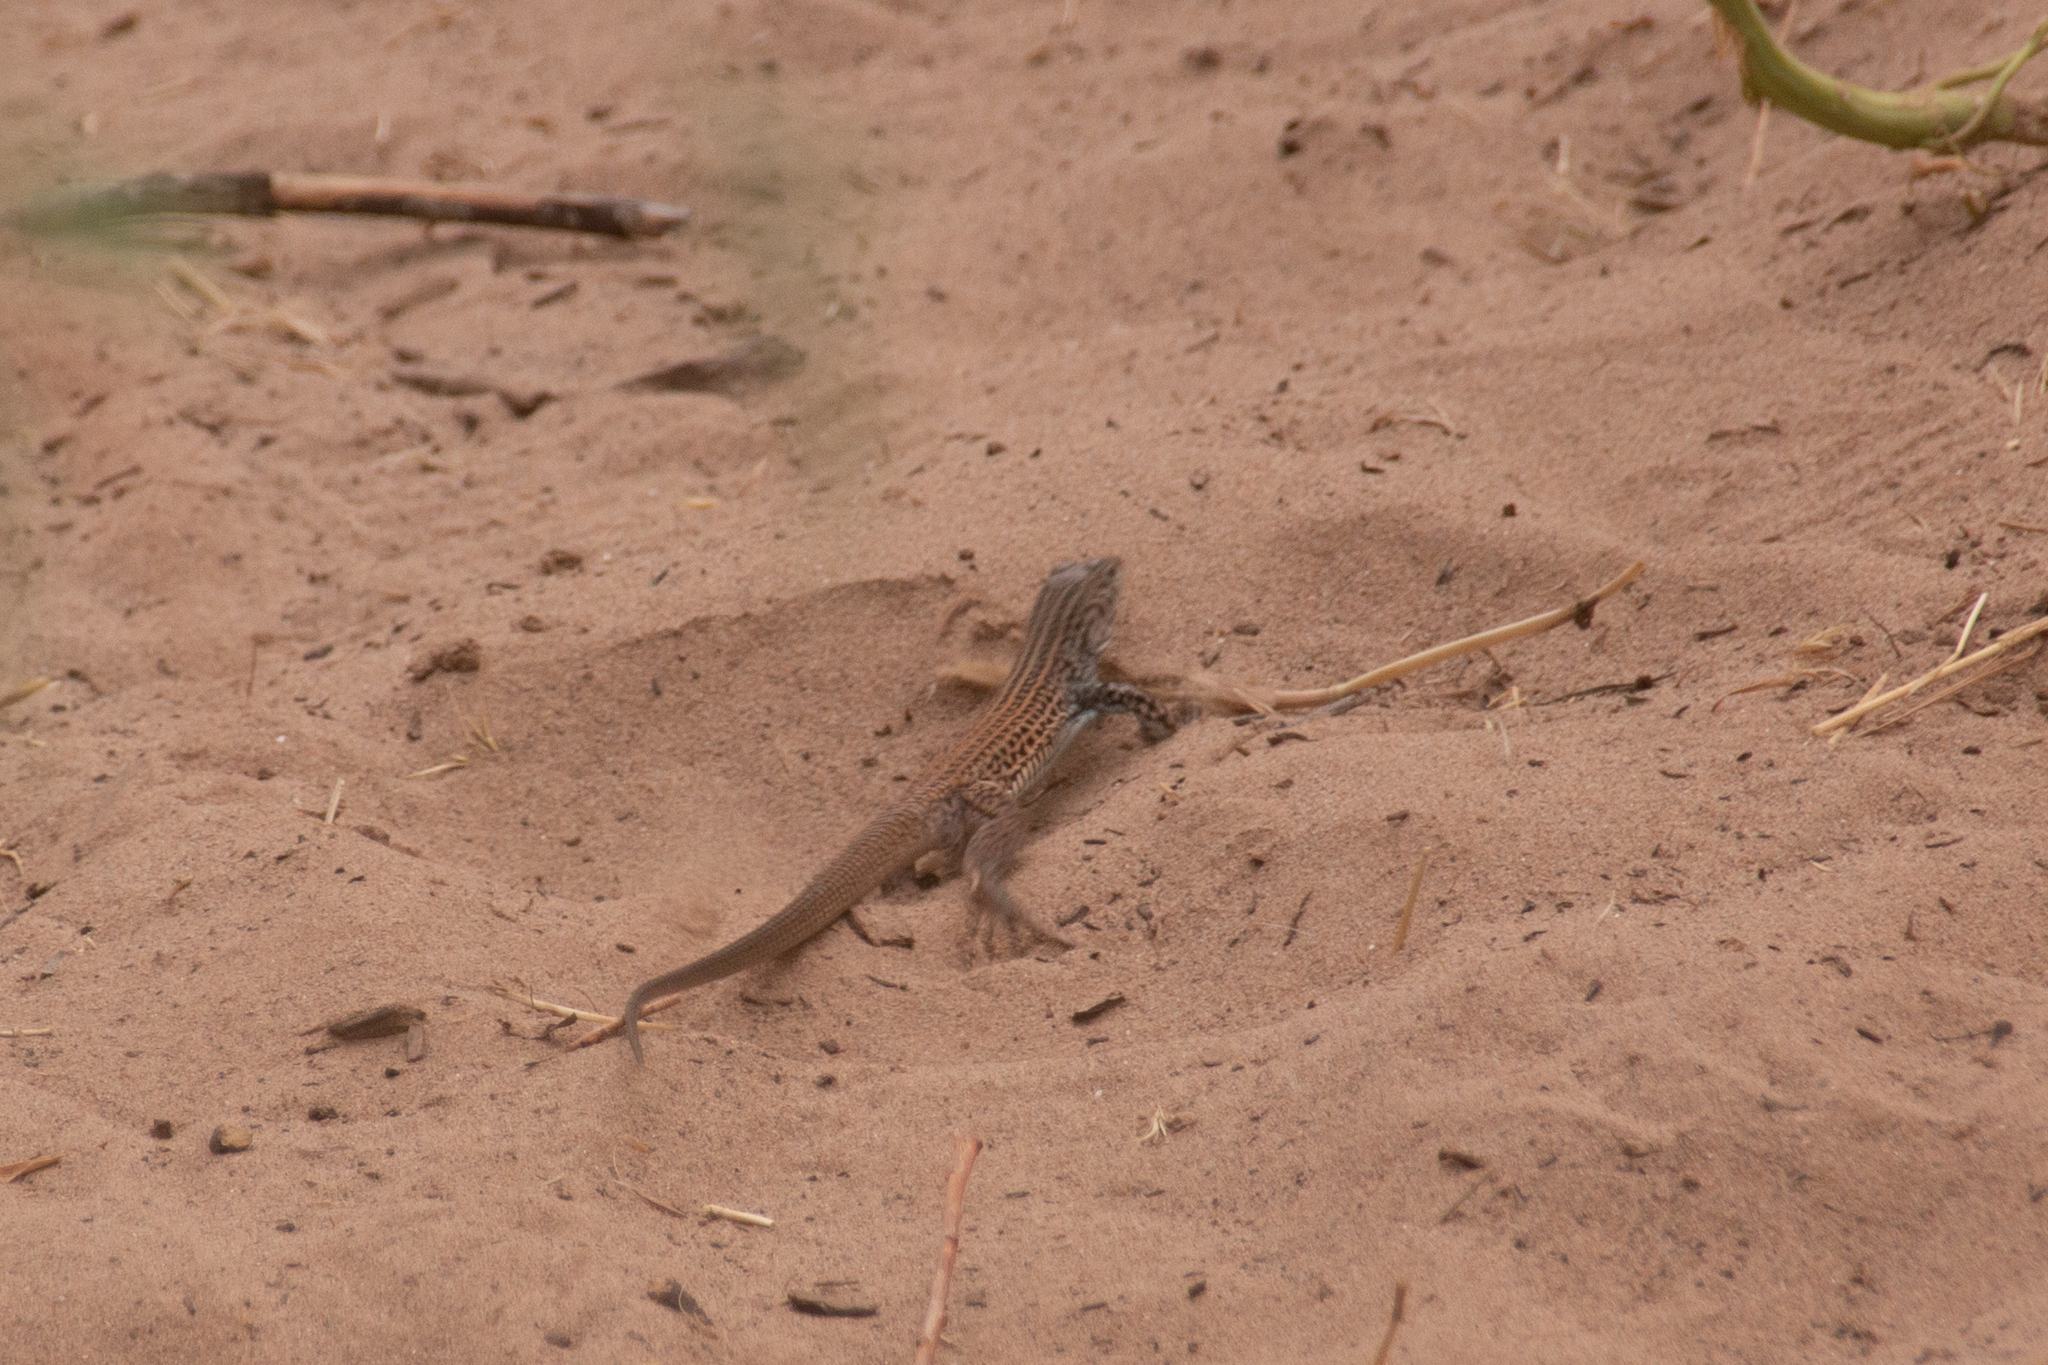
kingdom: Animalia
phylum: Chordata
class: Squamata
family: Teiidae
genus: Aspidoscelis
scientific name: Aspidoscelis tigris
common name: Tiger whiptail
